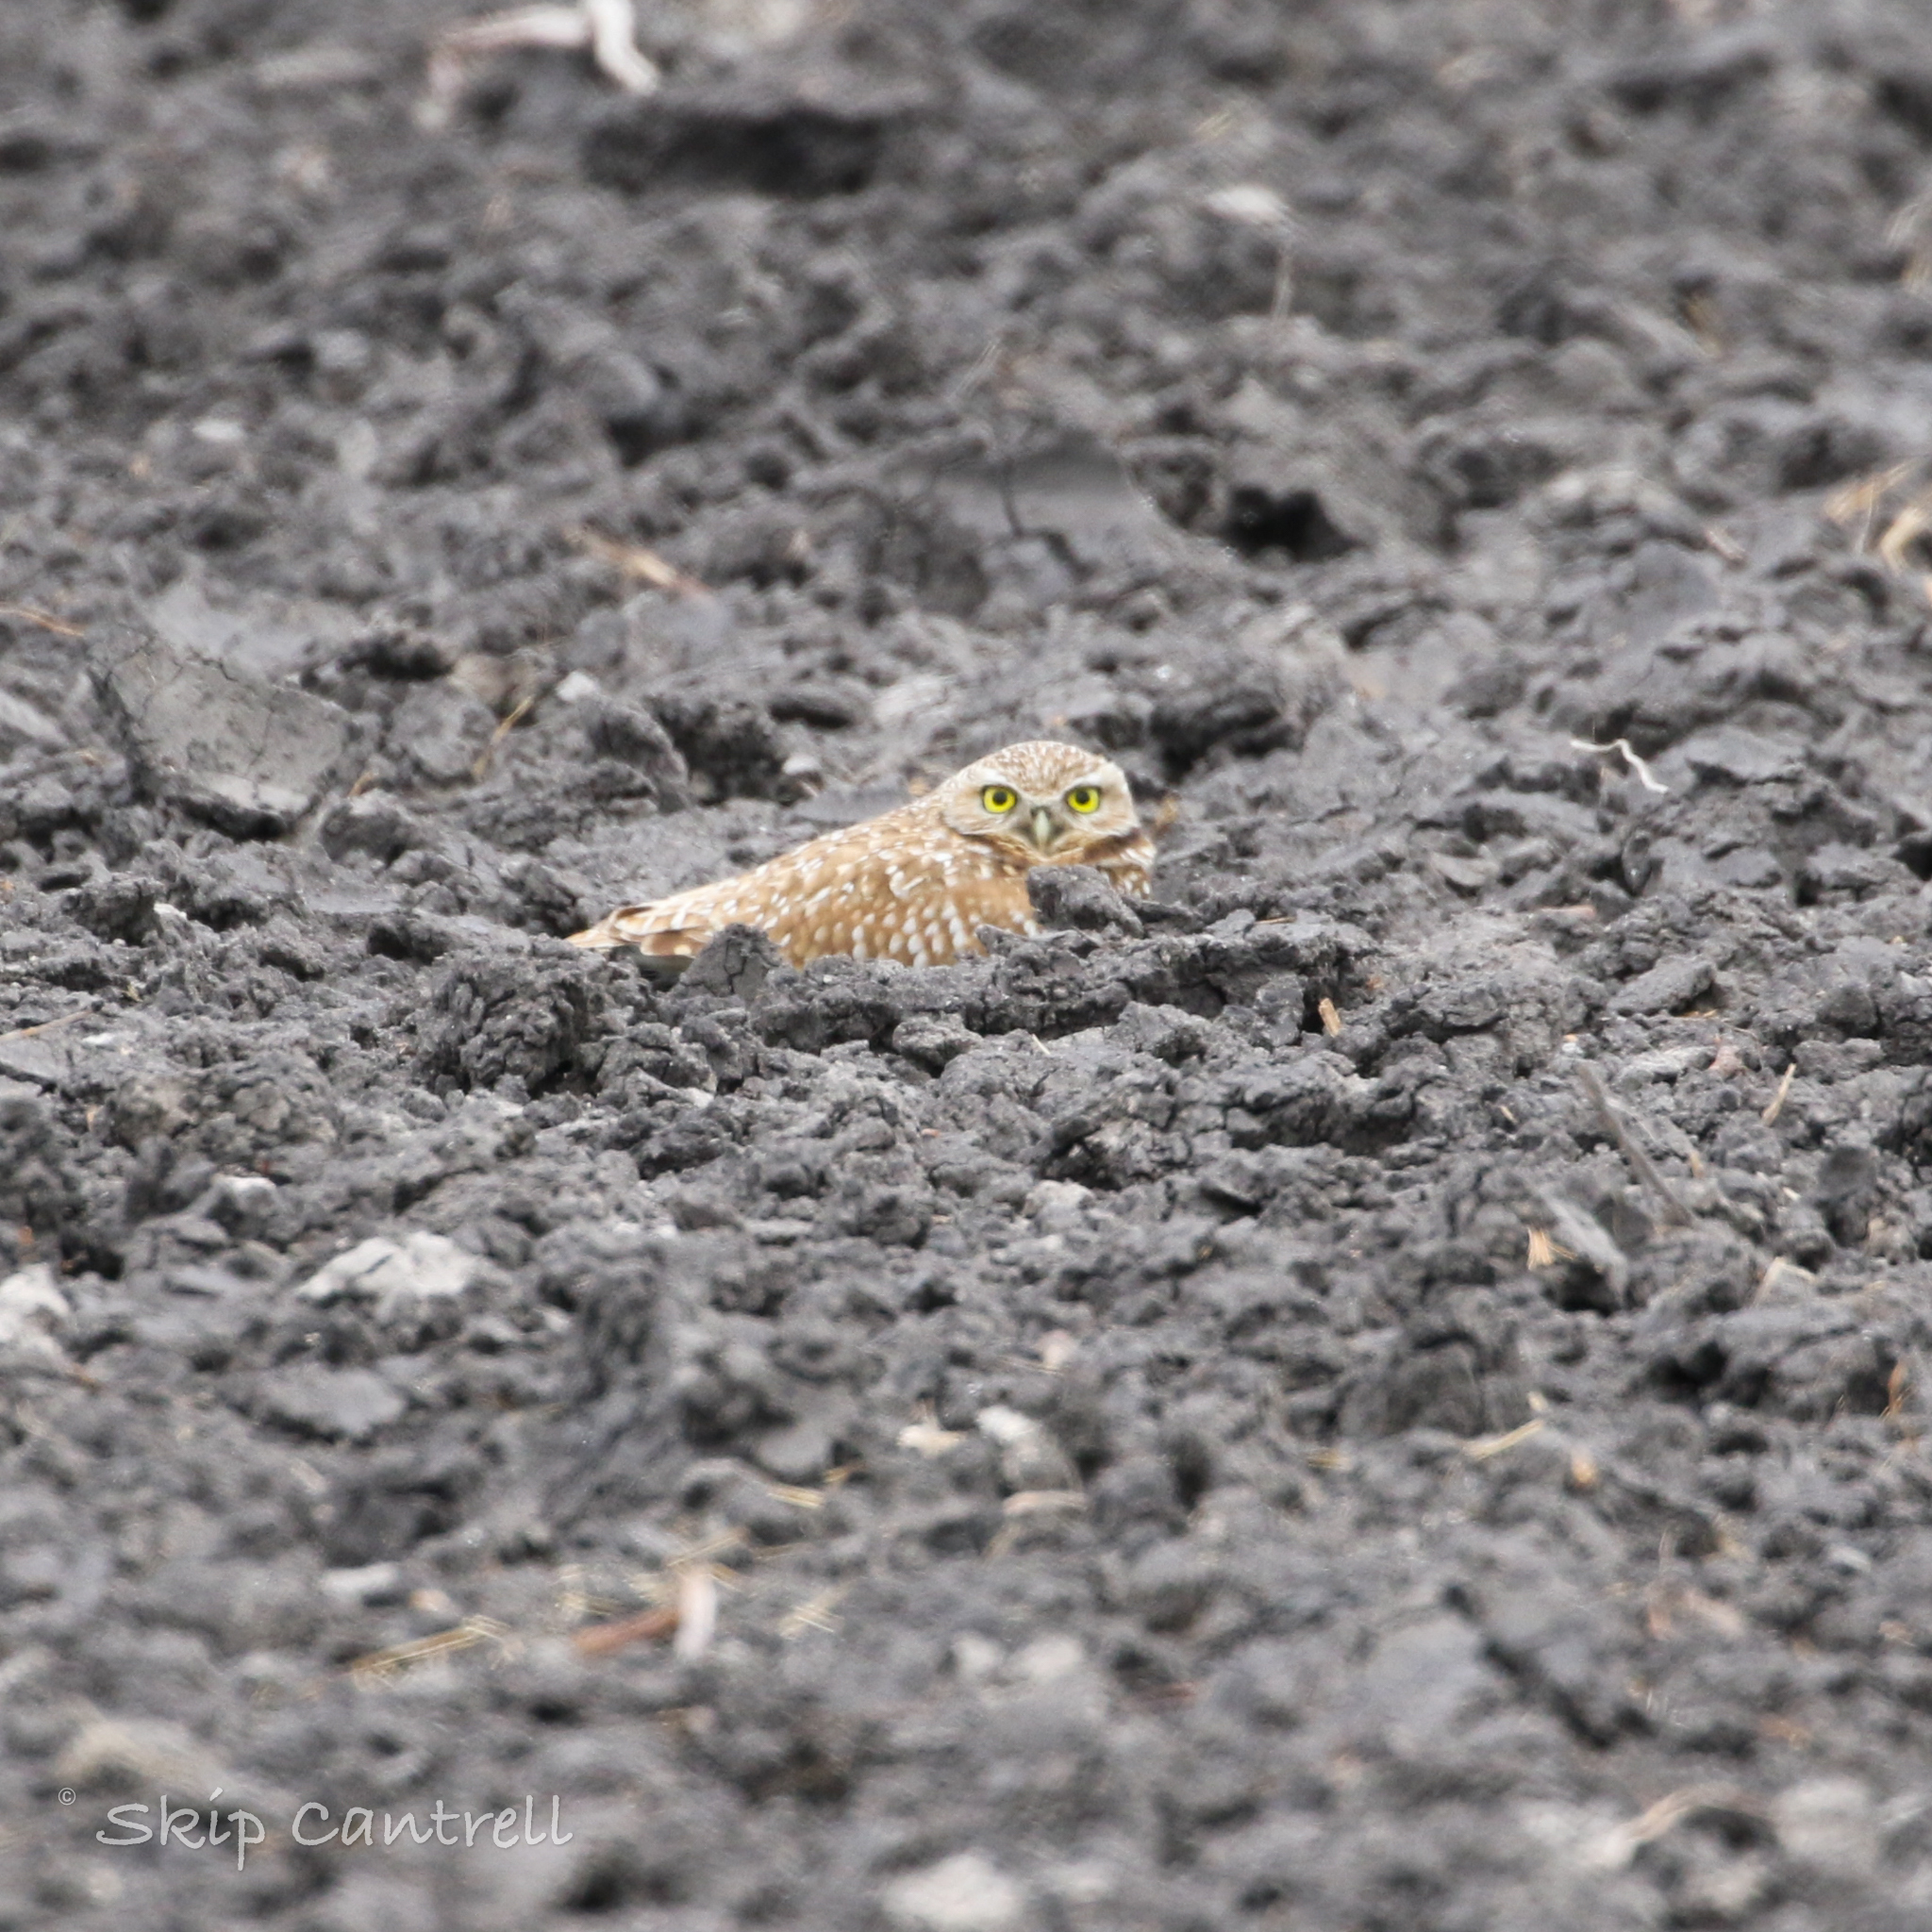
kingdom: Animalia
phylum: Chordata
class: Aves
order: Strigiformes
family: Strigidae
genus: Athene
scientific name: Athene cunicularia
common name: Burrowing owl
